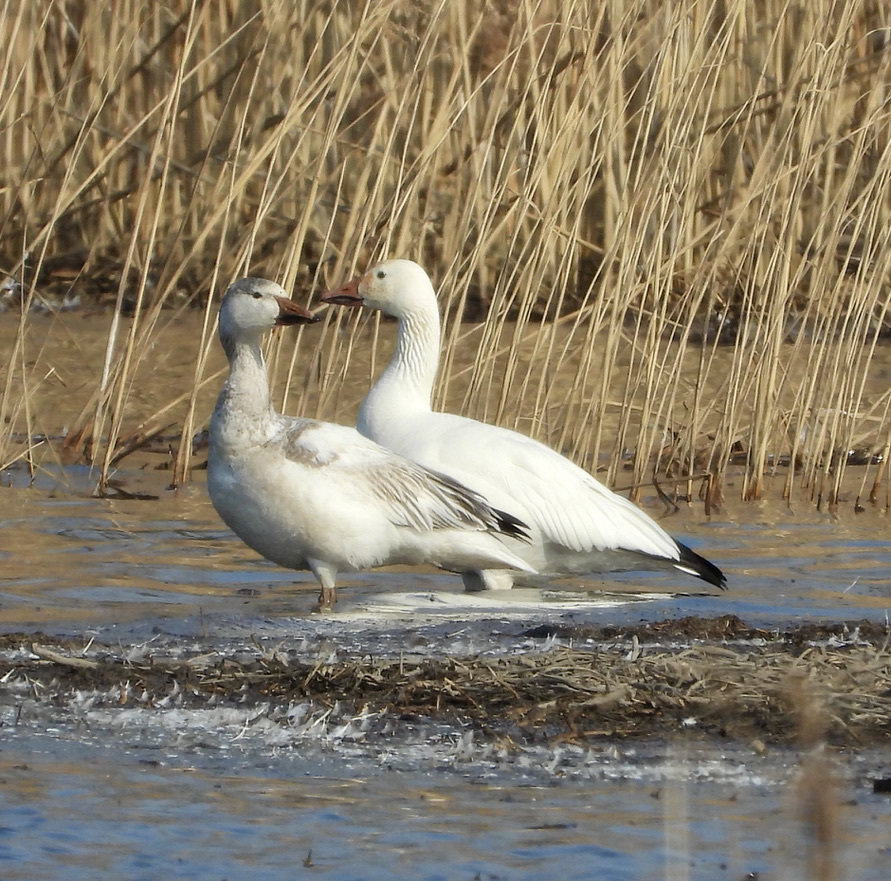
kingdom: Animalia
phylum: Chordata
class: Aves
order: Anseriformes
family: Anatidae
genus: Anser
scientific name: Anser caerulescens
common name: Snow goose
